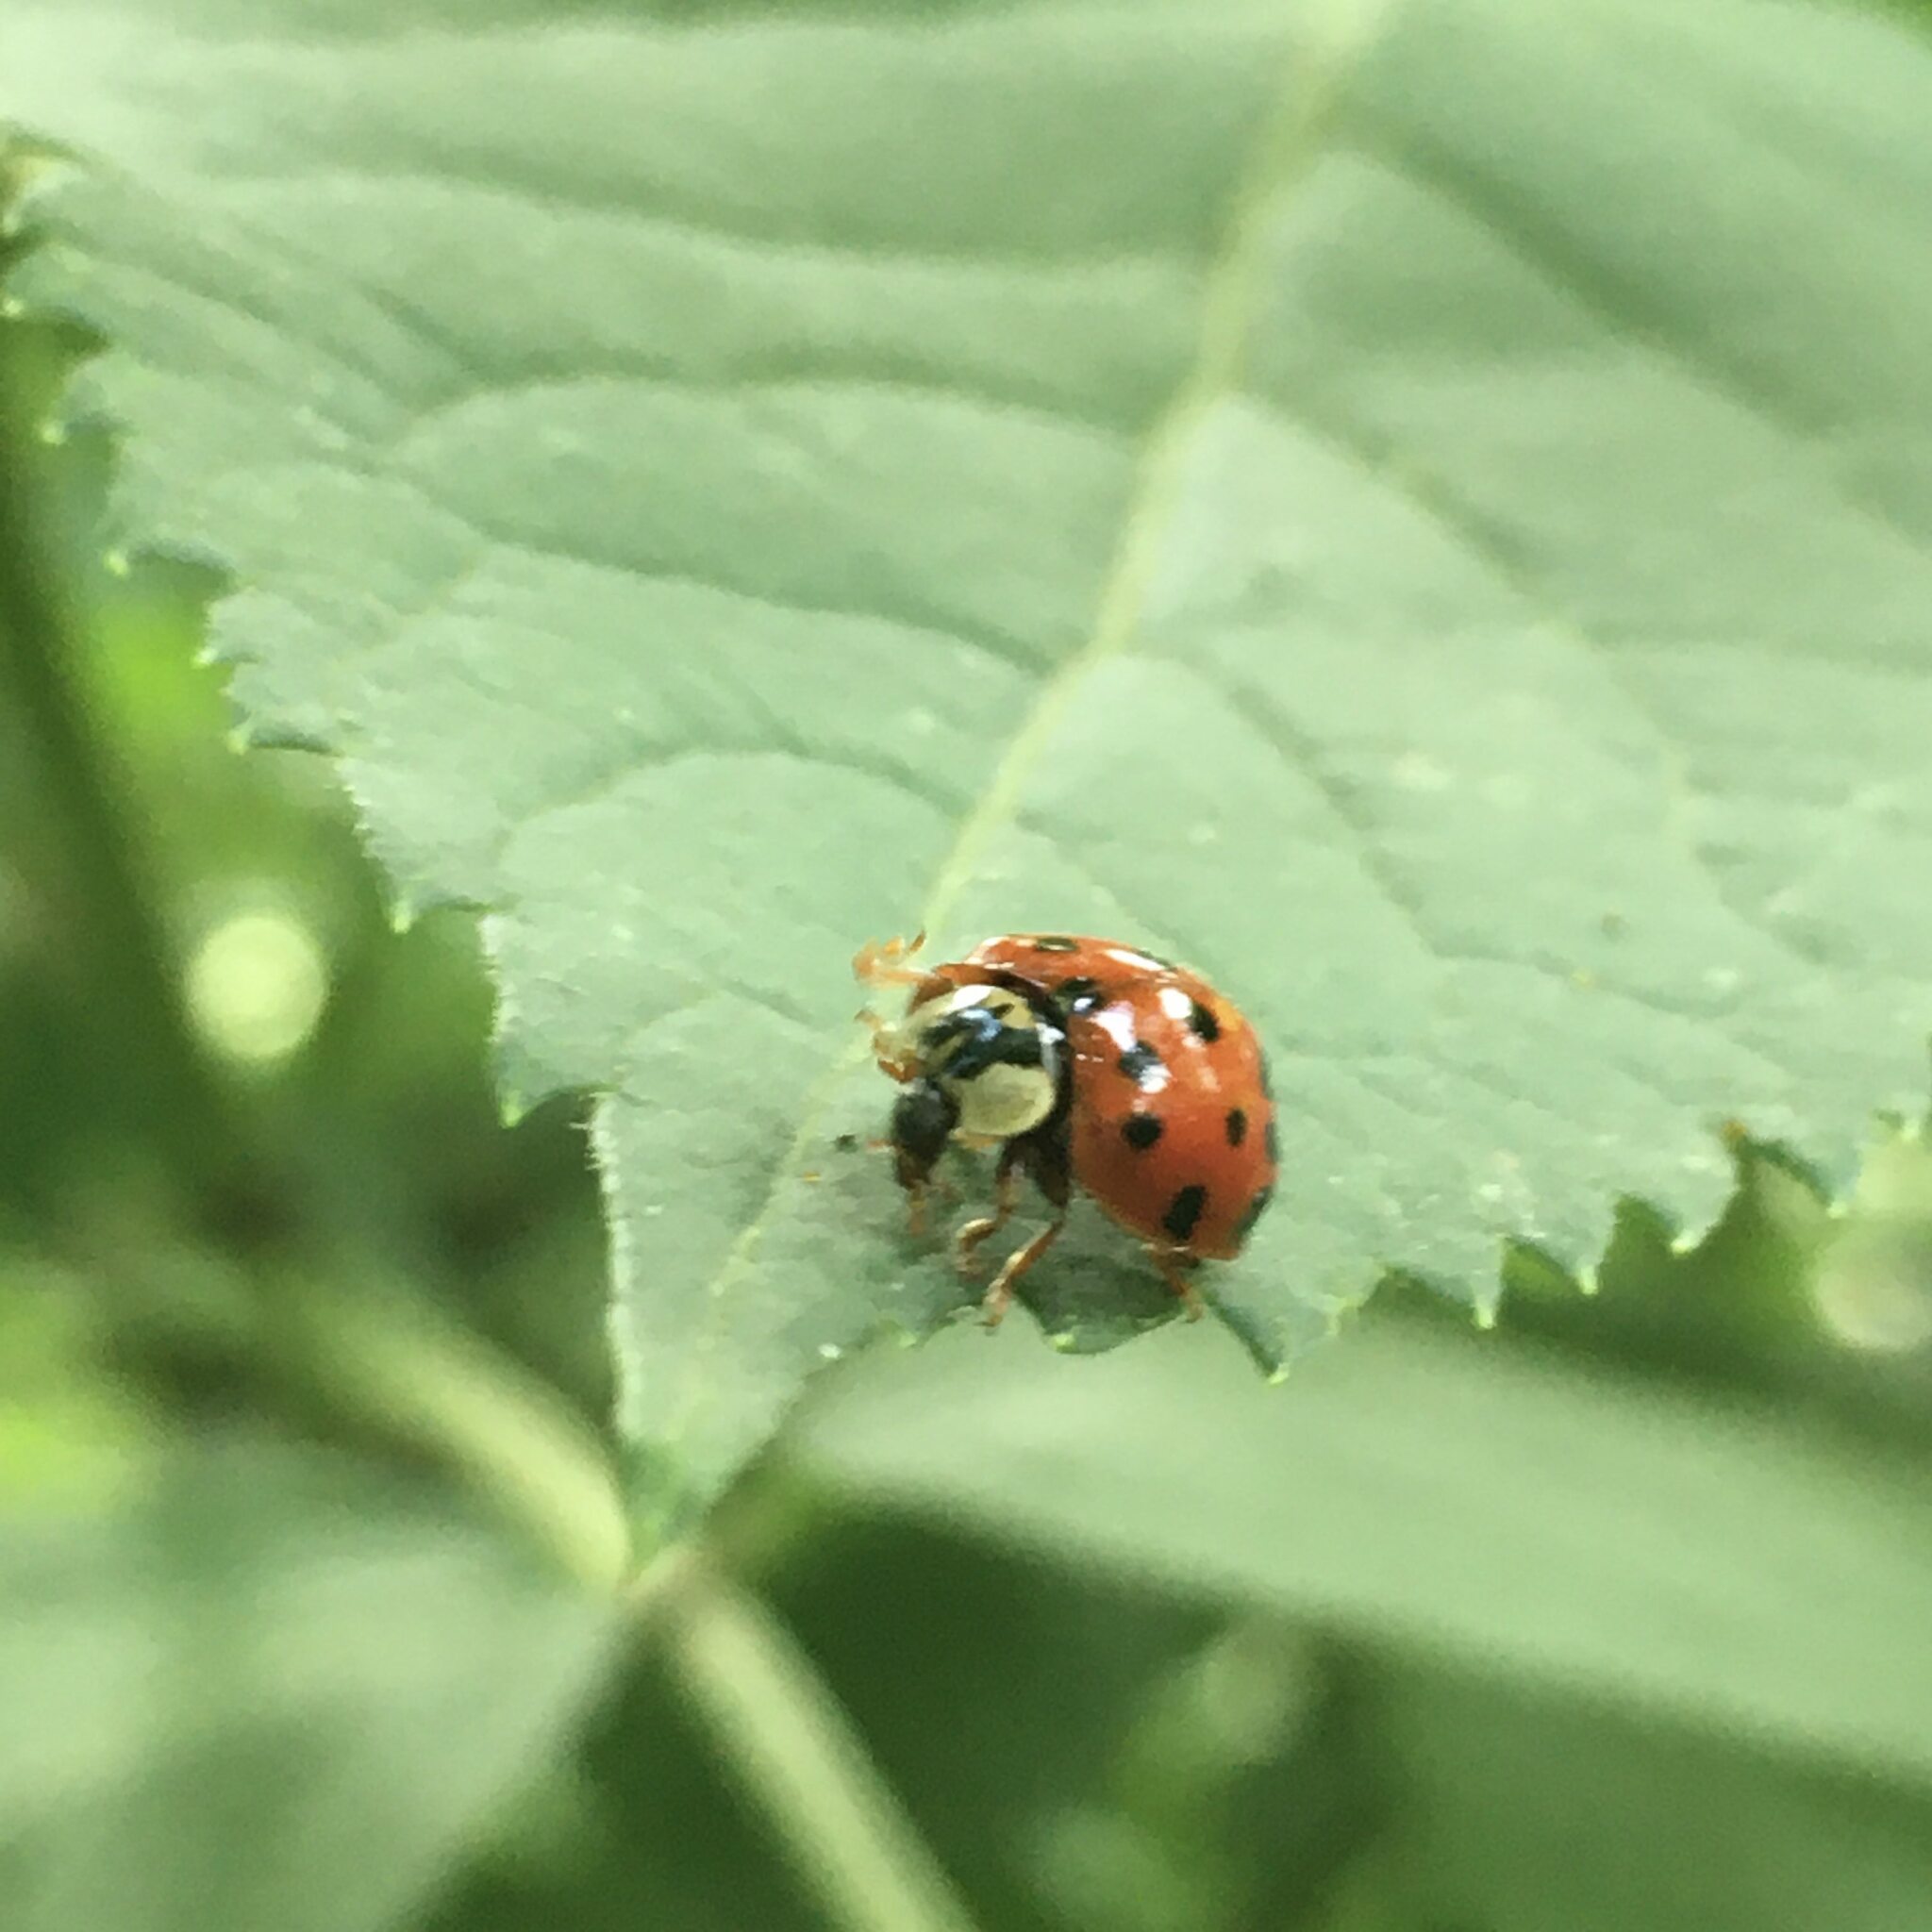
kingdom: Animalia
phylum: Arthropoda
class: Insecta
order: Coleoptera
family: Coccinellidae
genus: Harmonia
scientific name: Harmonia axyridis
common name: Harlequin ladybird
